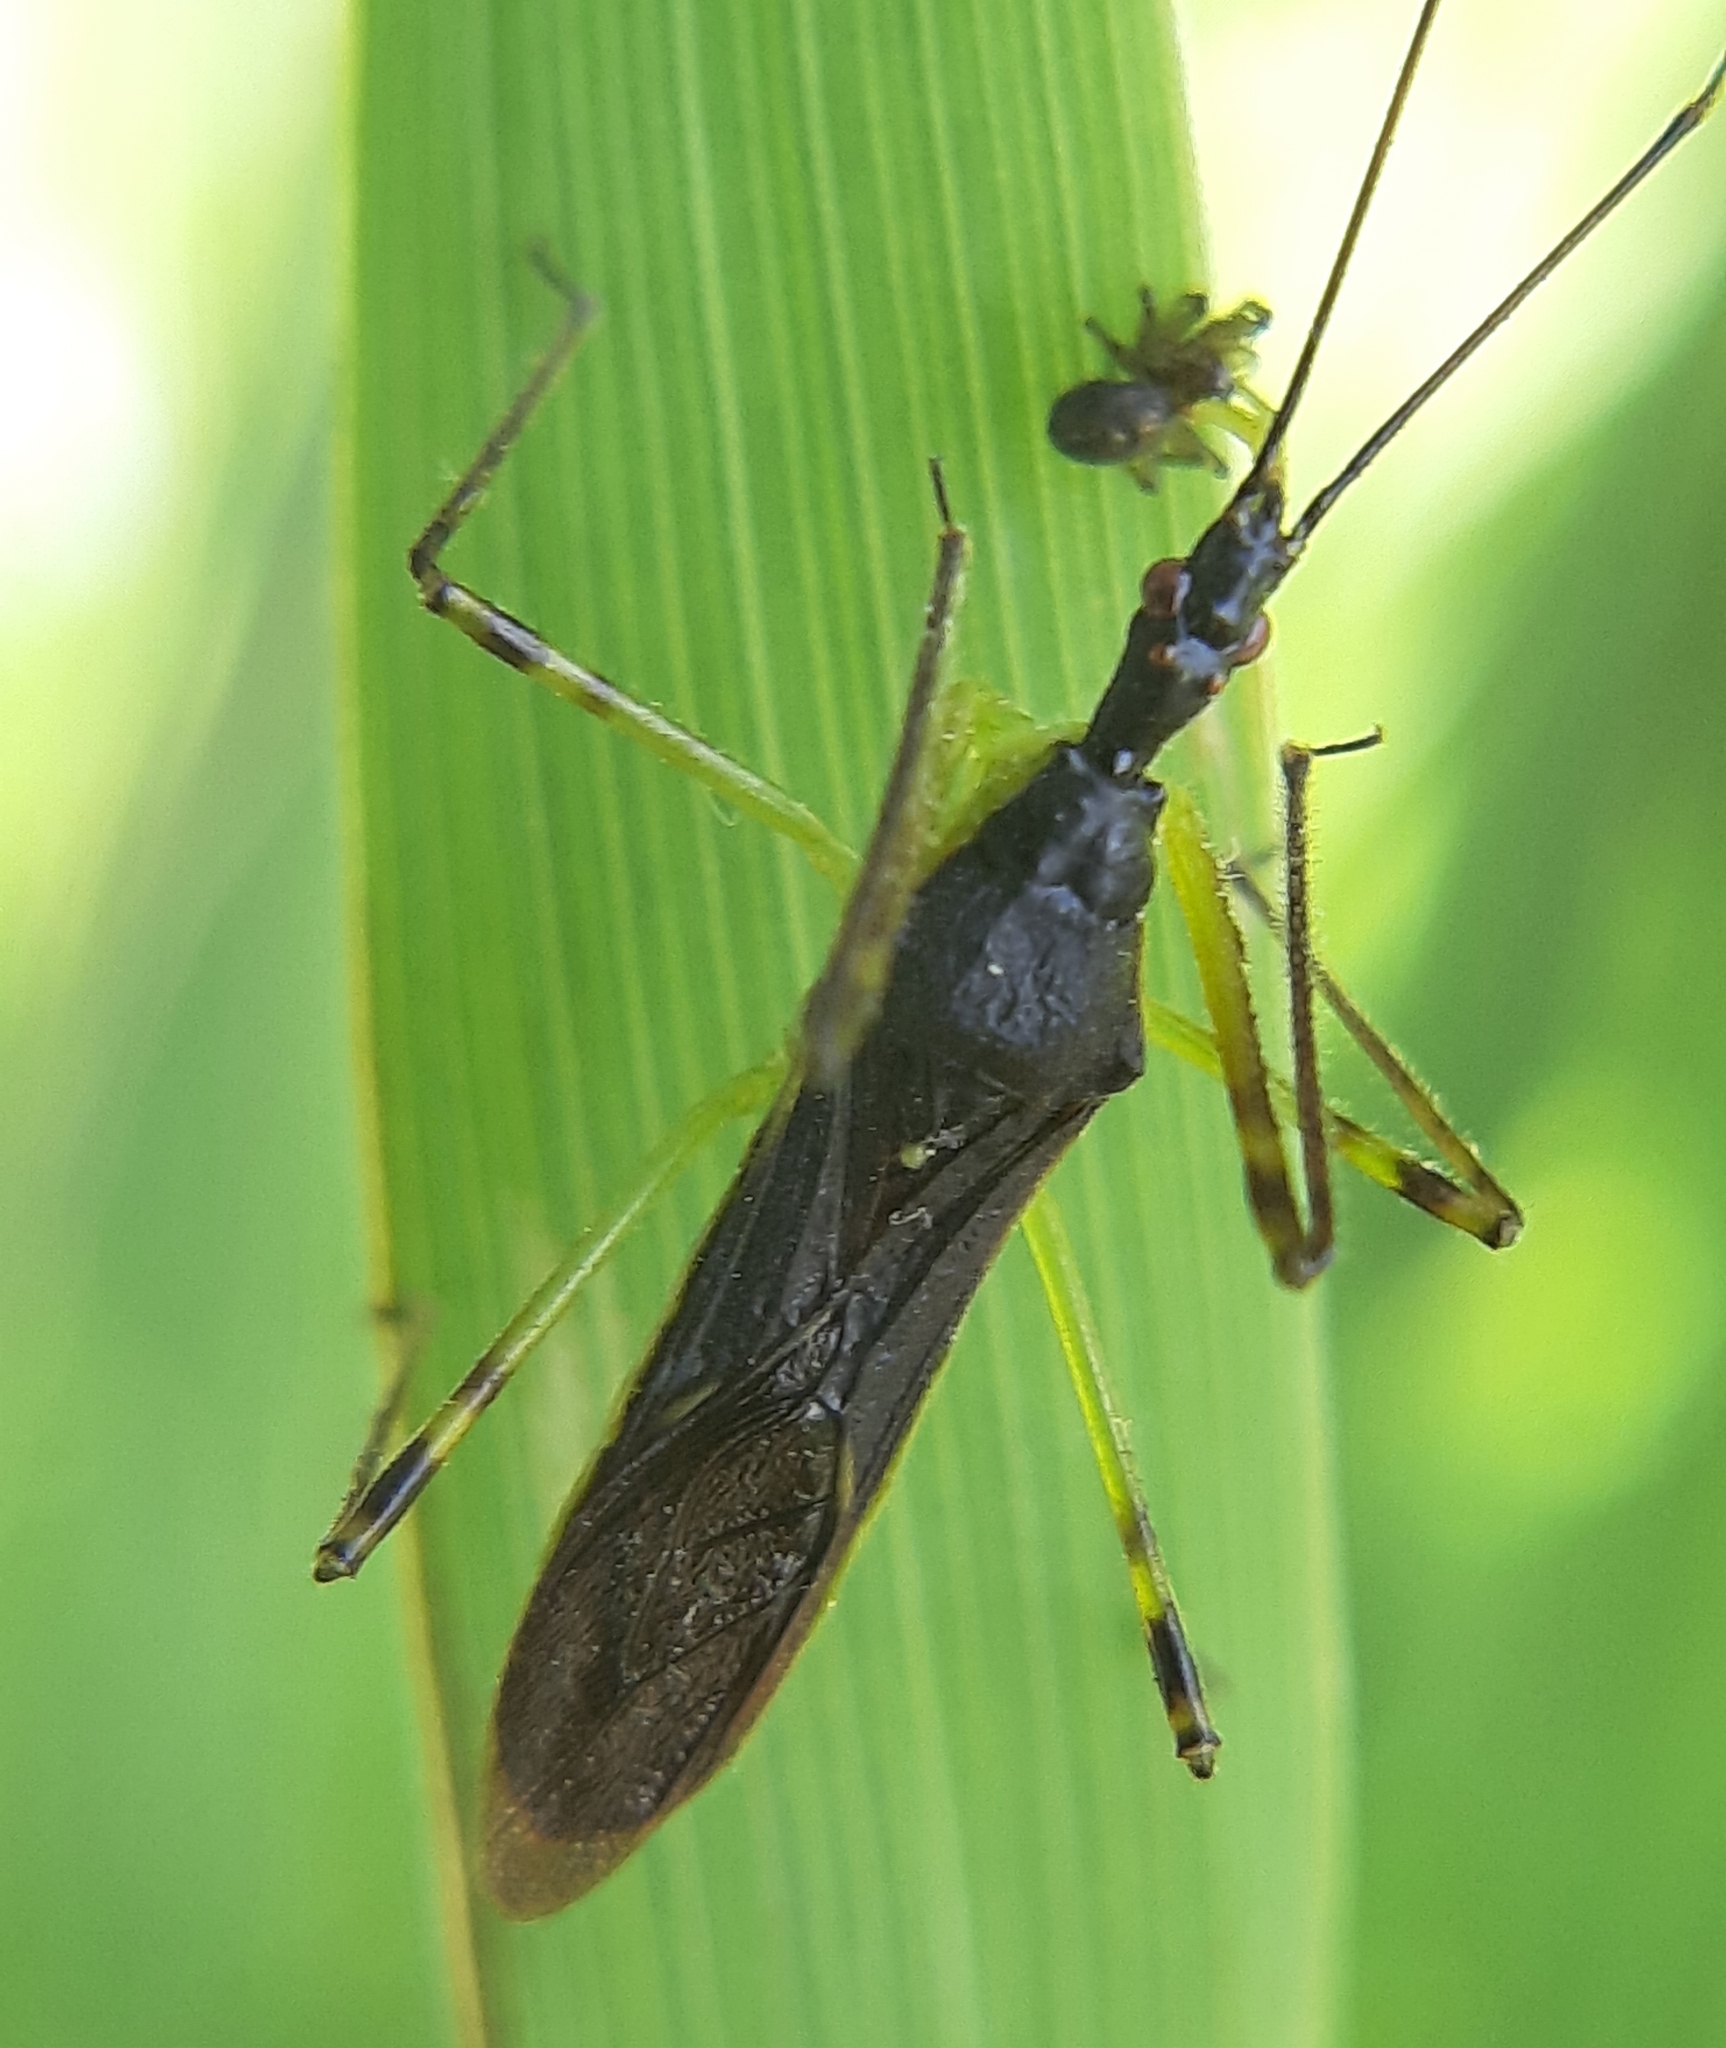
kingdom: Animalia
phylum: Arthropoda
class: Insecta
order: Hemiptera
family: Reduviidae
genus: Zelus
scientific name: Zelus luridus
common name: Pale green assassin bug
